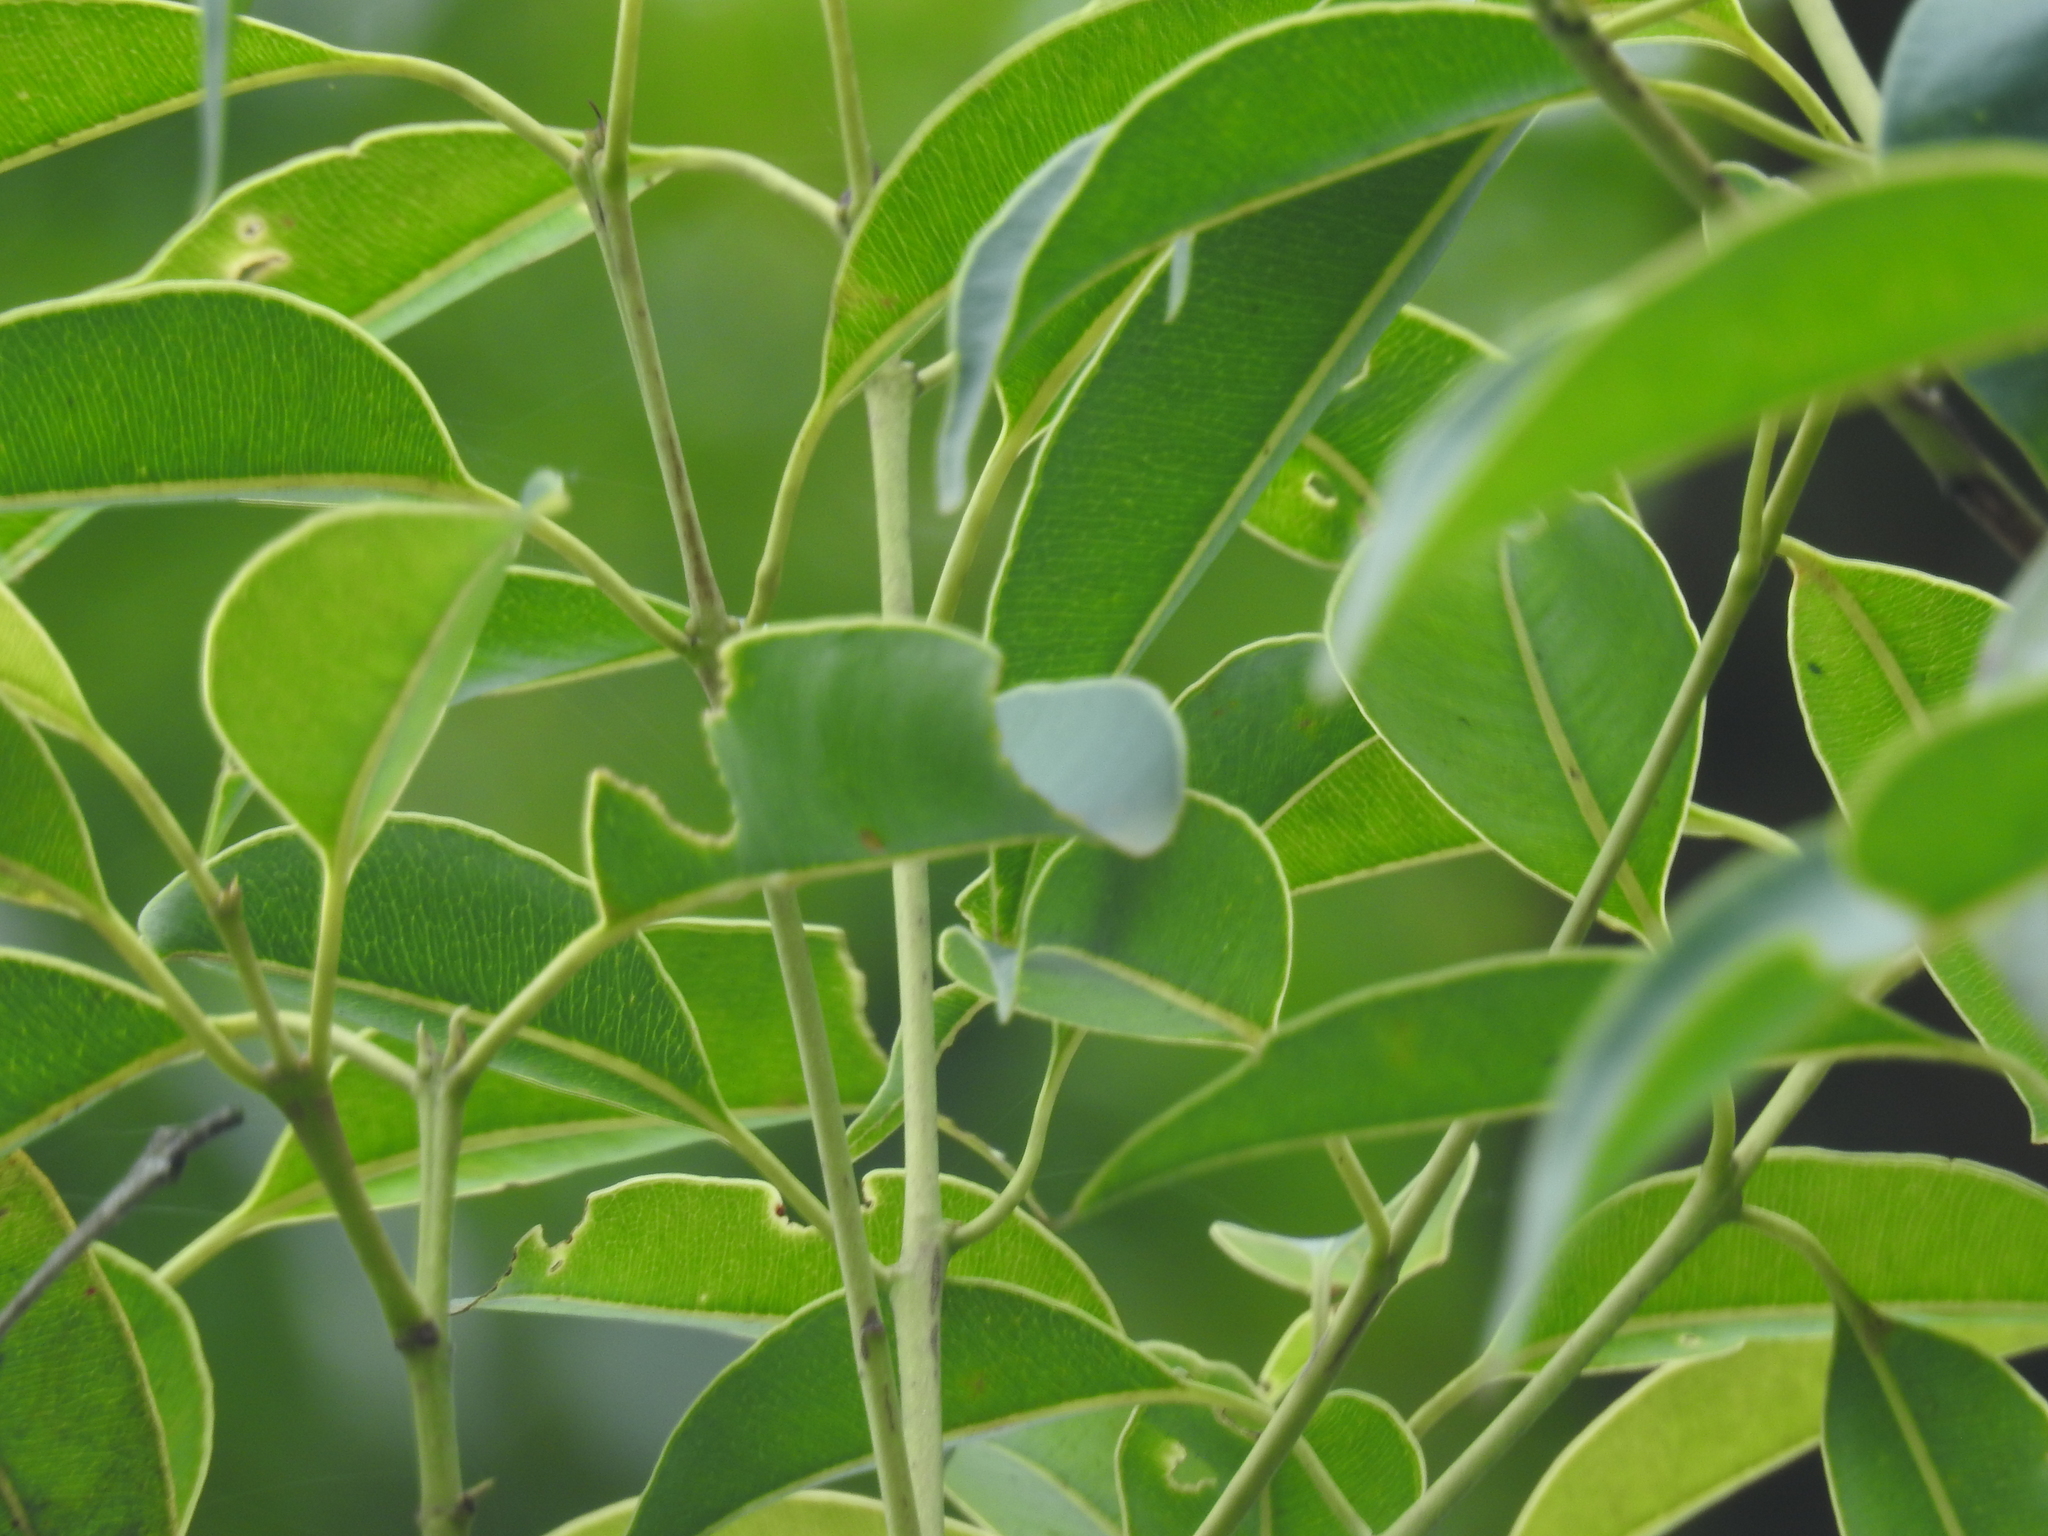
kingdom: Plantae
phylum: Tracheophyta
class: Magnoliopsida
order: Myrtales
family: Myrtaceae
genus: Syzygium
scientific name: Syzygium densiflorum
